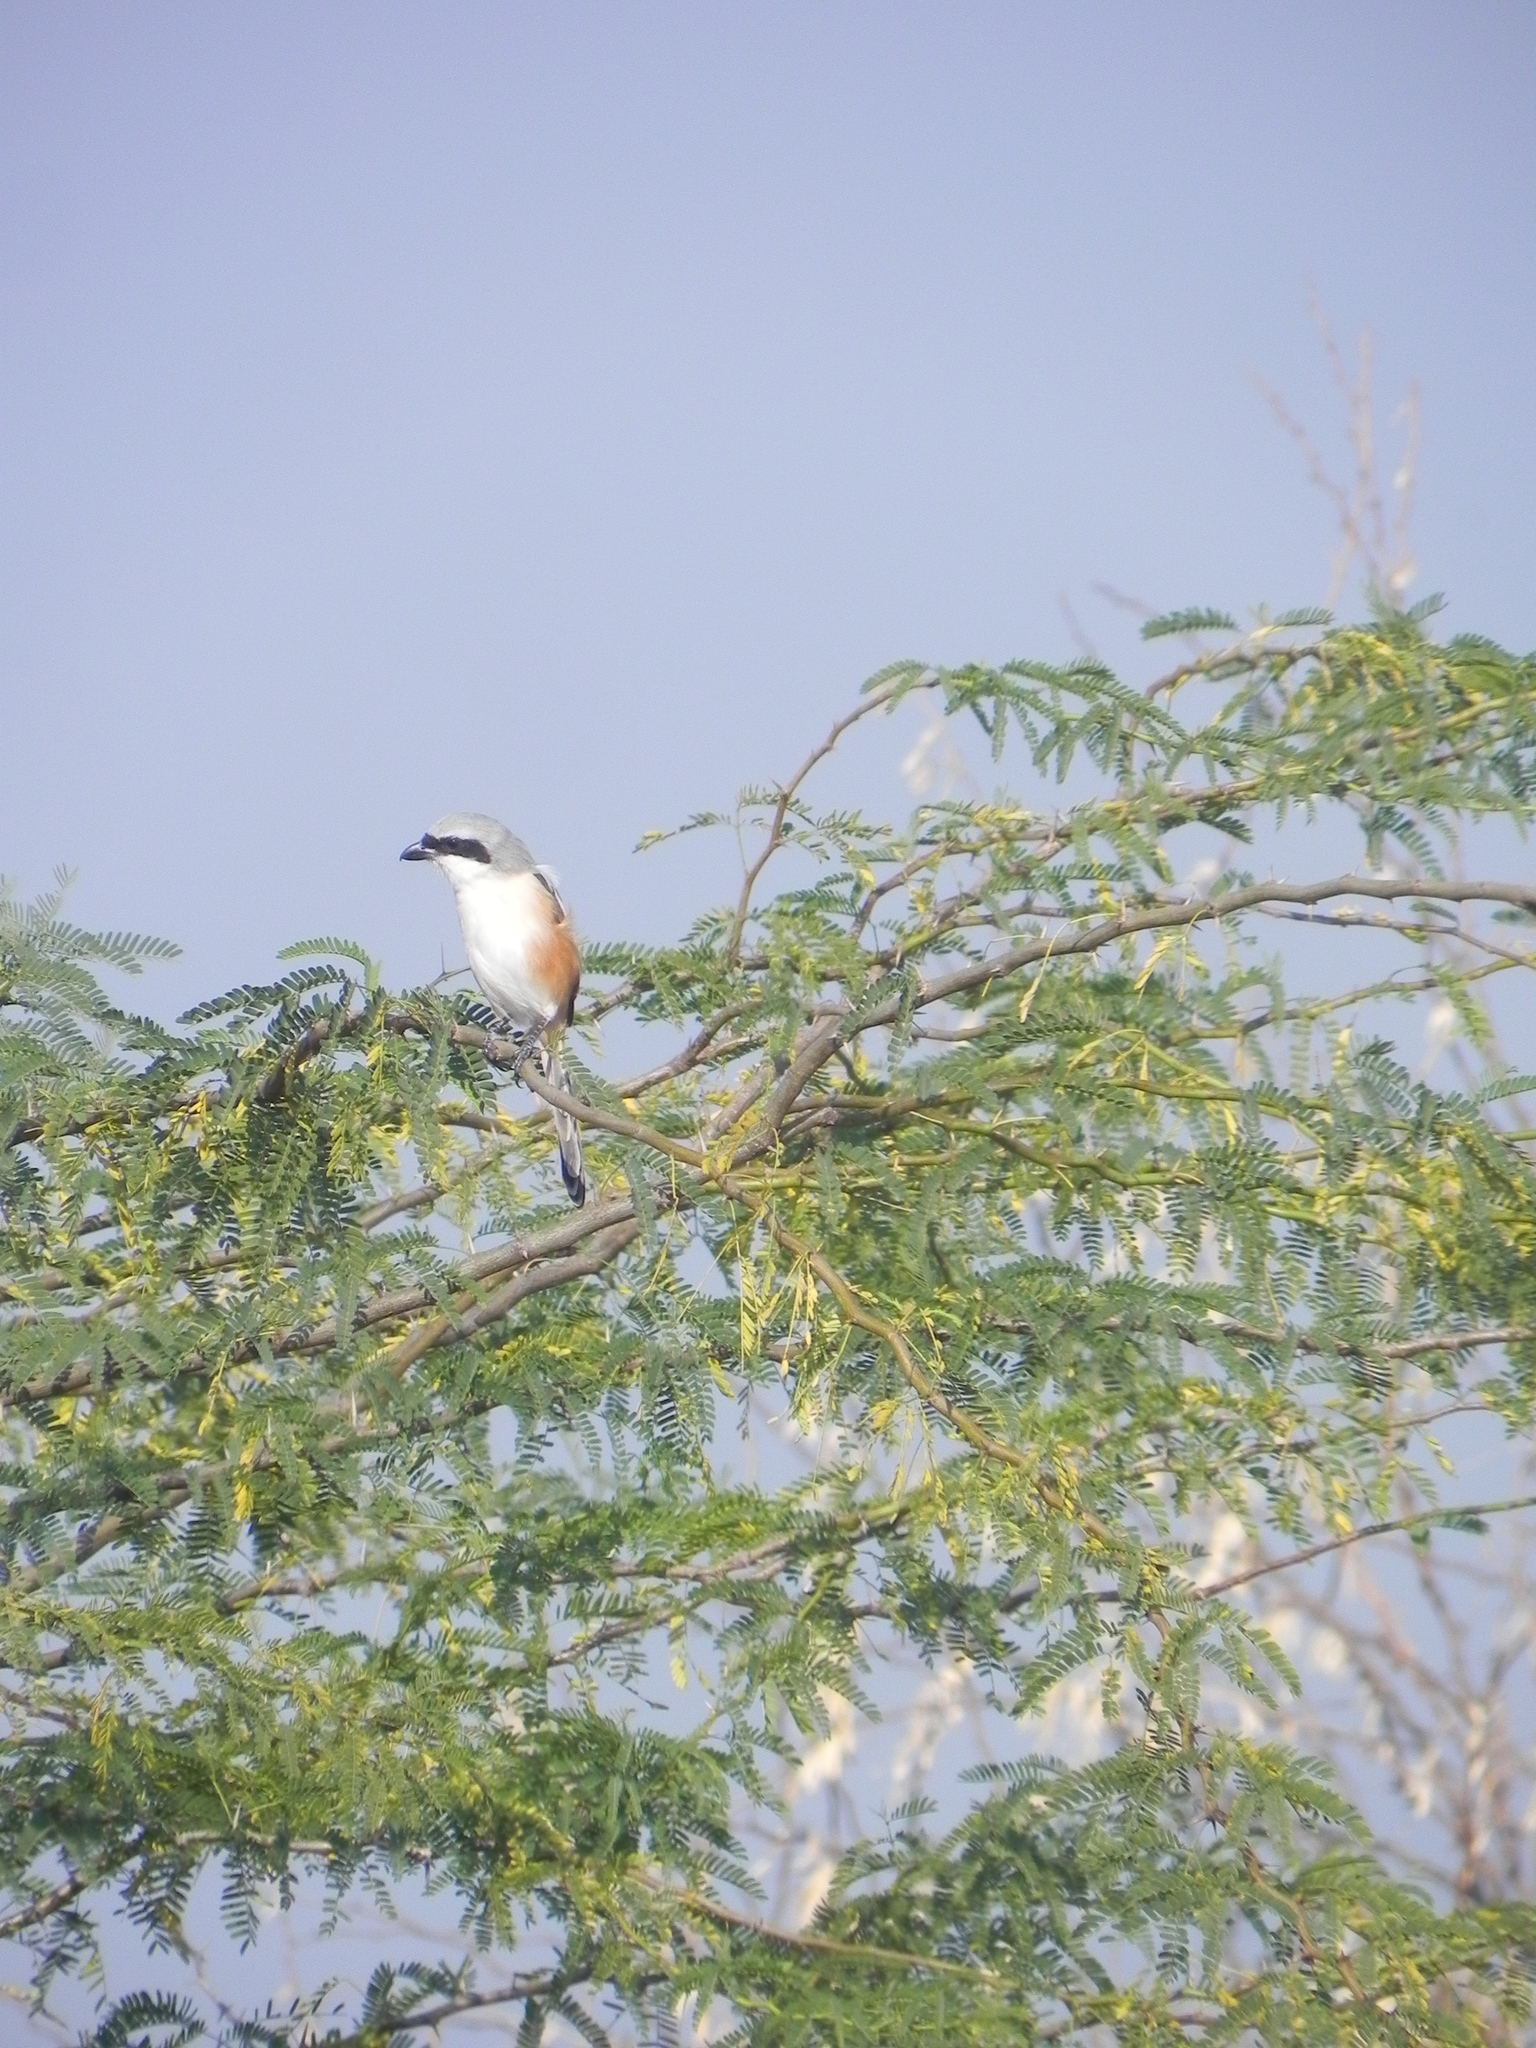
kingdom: Animalia
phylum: Chordata
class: Aves
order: Passeriformes
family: Laniidae
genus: Lanius
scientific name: Lanius vittatus
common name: Bay-backed shrike
